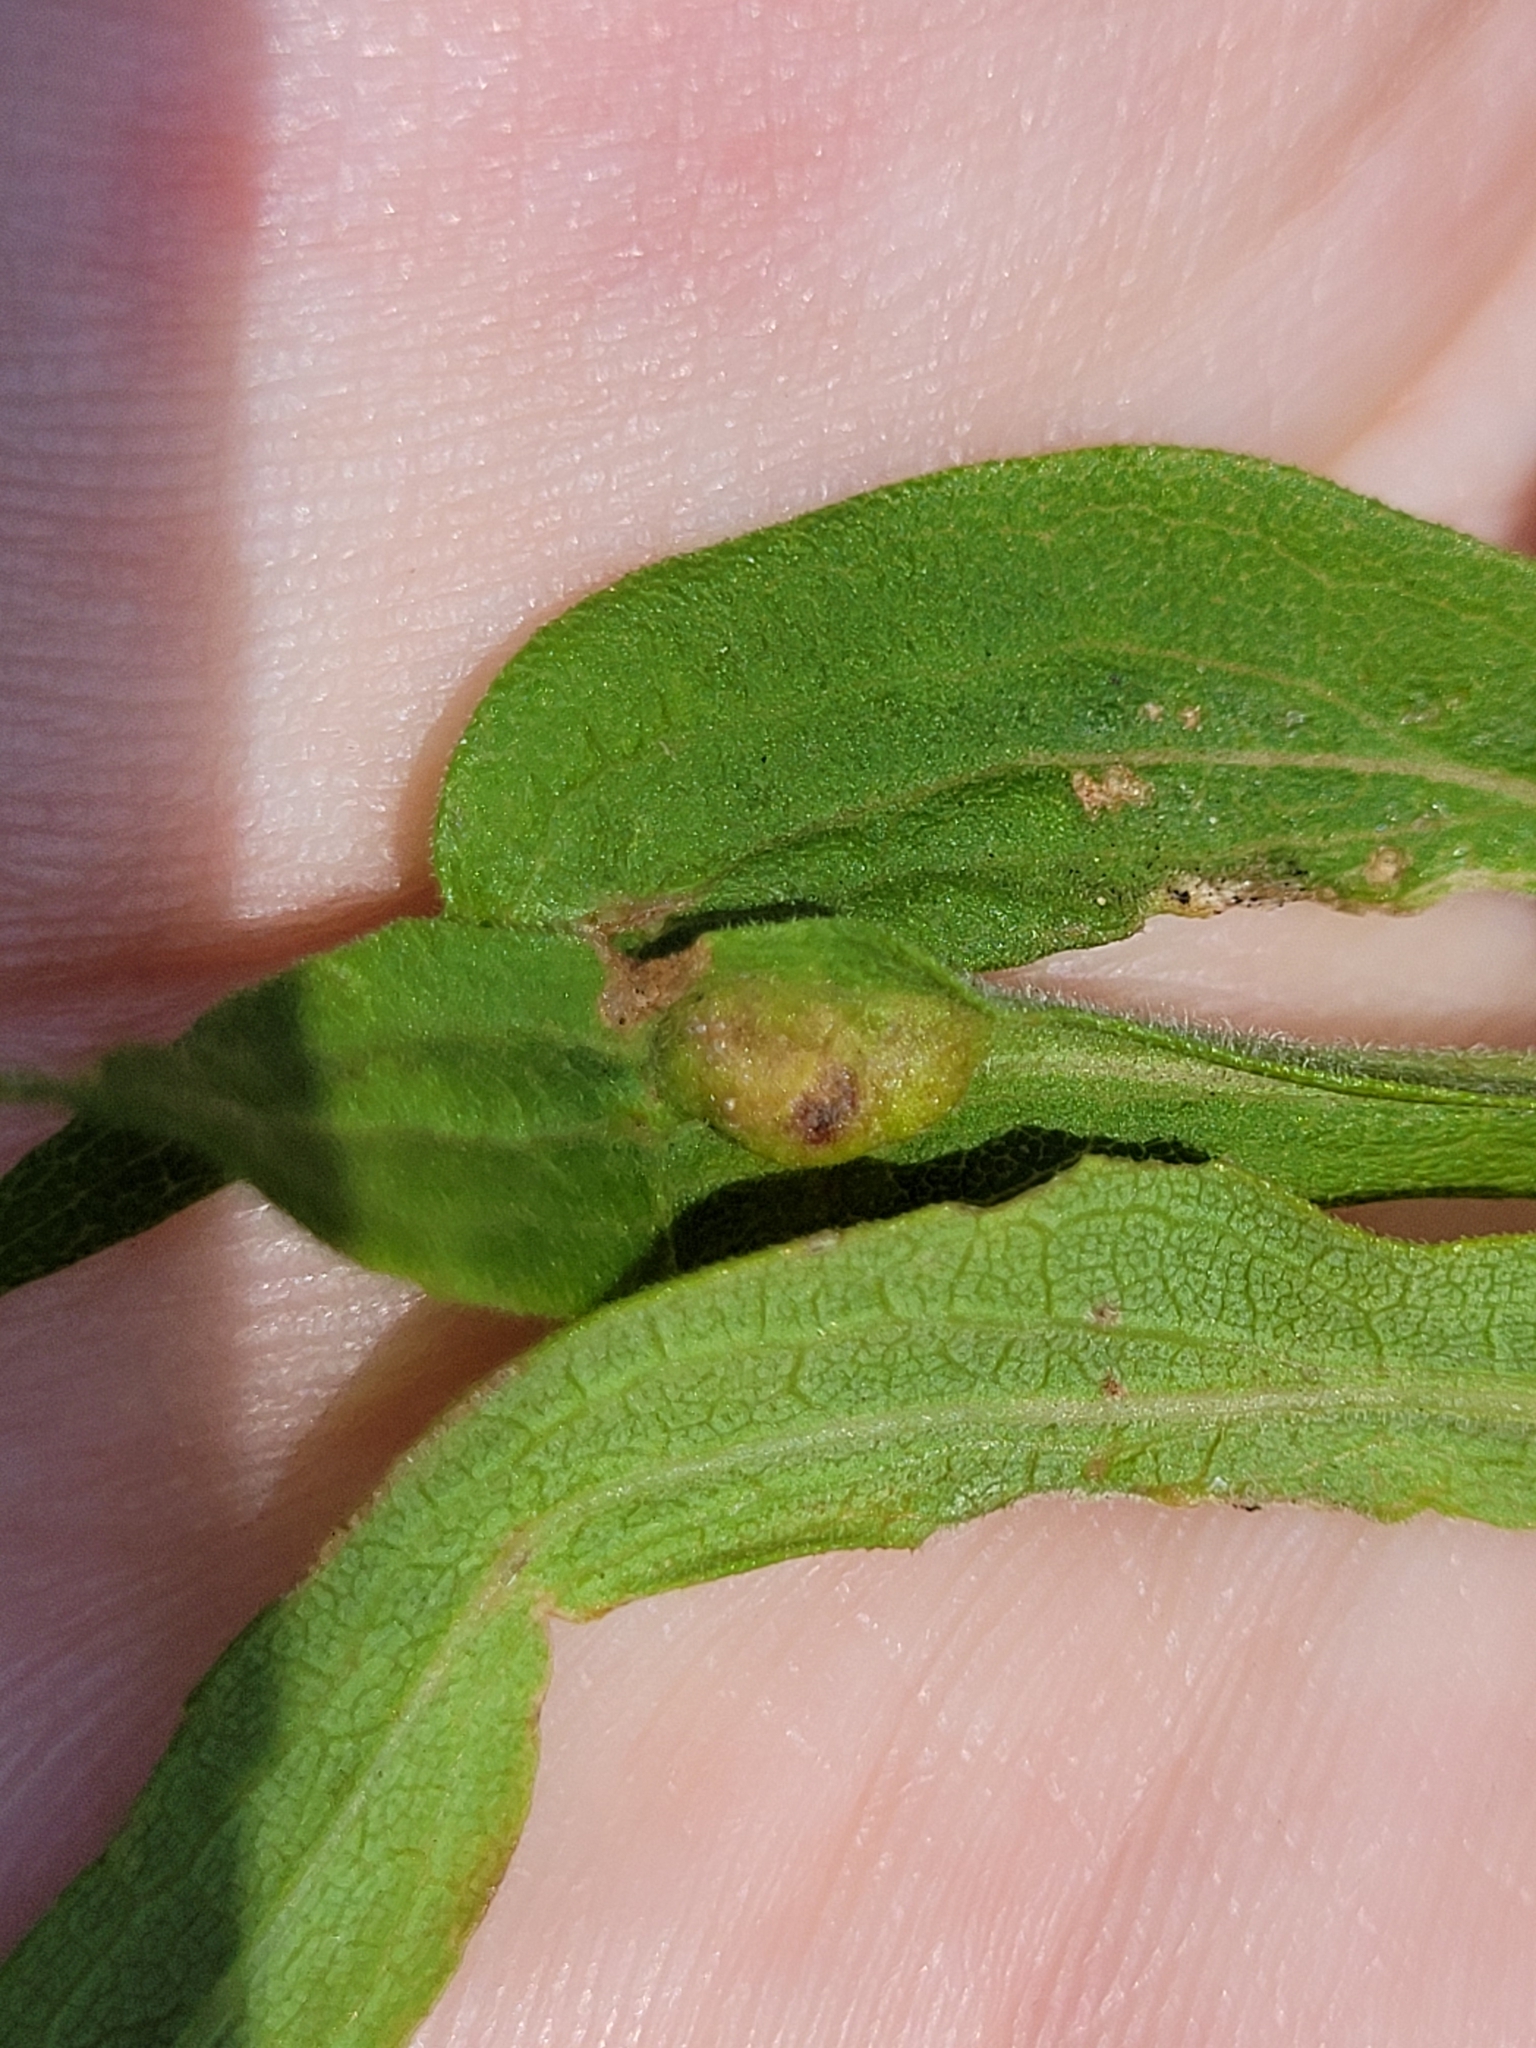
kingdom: Animalia
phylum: Arthropoda
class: Insecta
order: Diptera
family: Cecidomyiidae
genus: Asphondylia
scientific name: Asphondylia solidaginis
